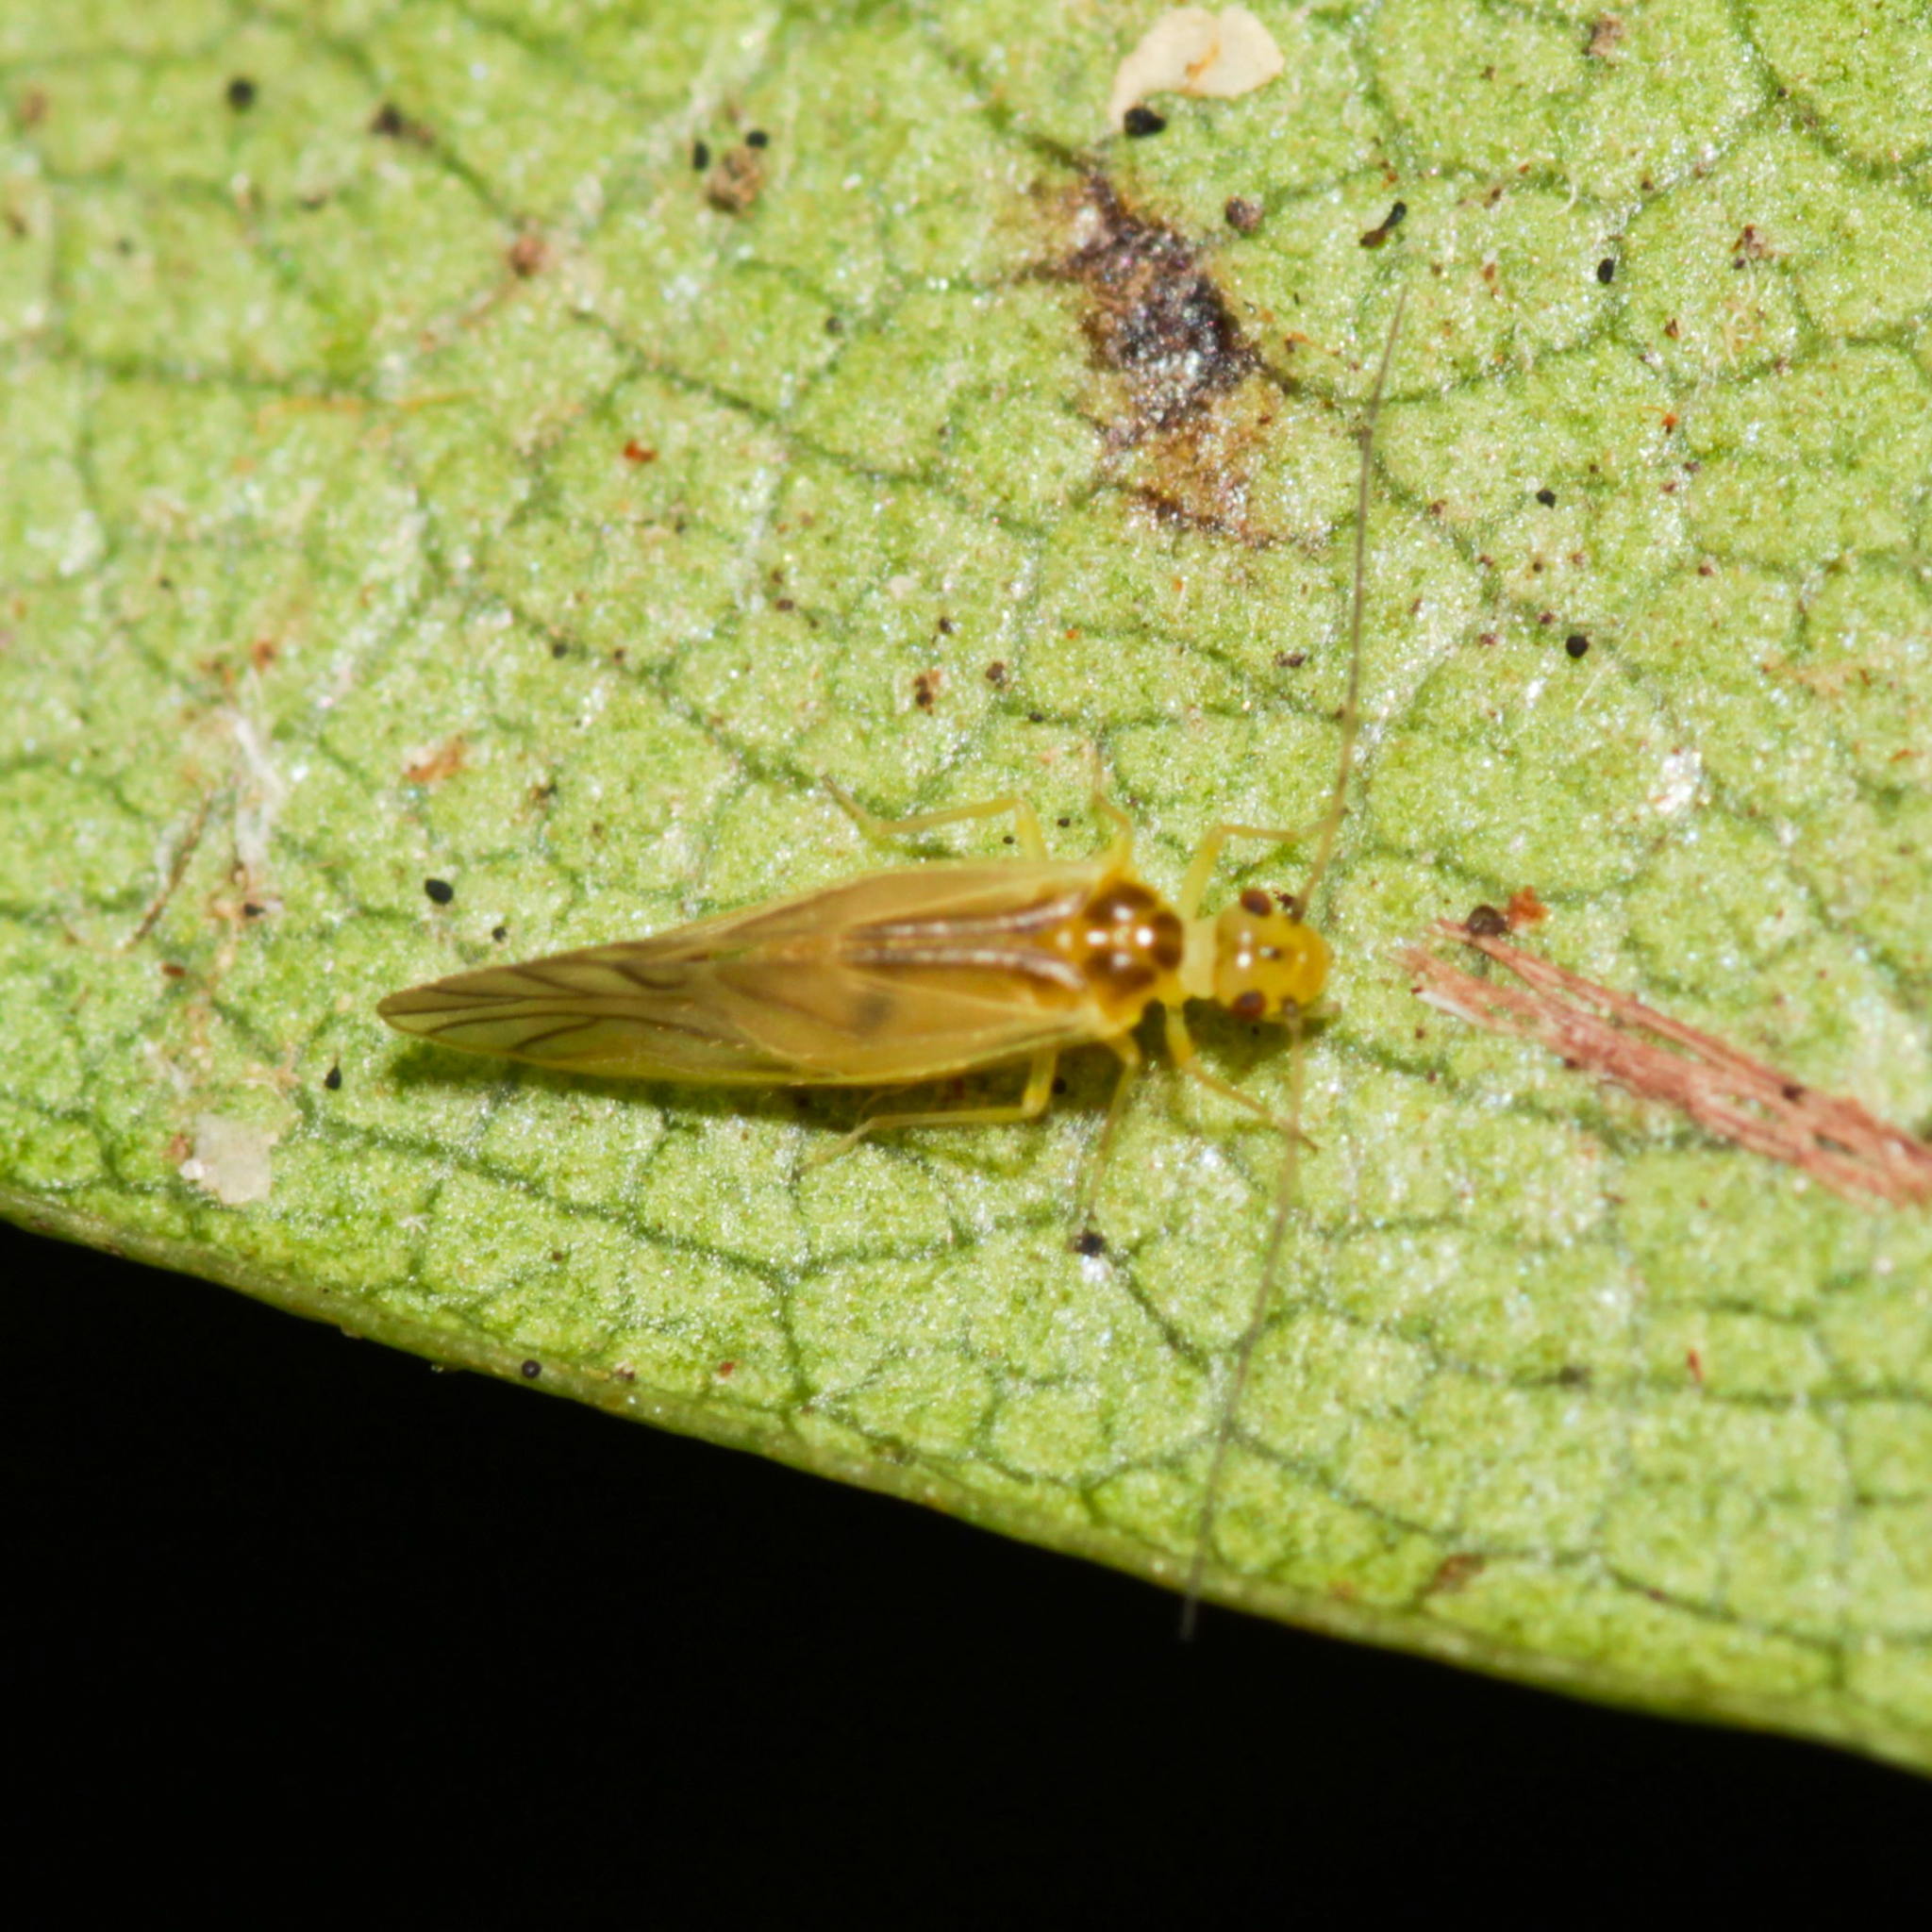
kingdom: Animalia
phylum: Arthropoda
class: Insecta
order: Psocodea
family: Caeciliusidae
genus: Valenzuela
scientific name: Valenzuela flavidus
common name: Yellow barklouse
